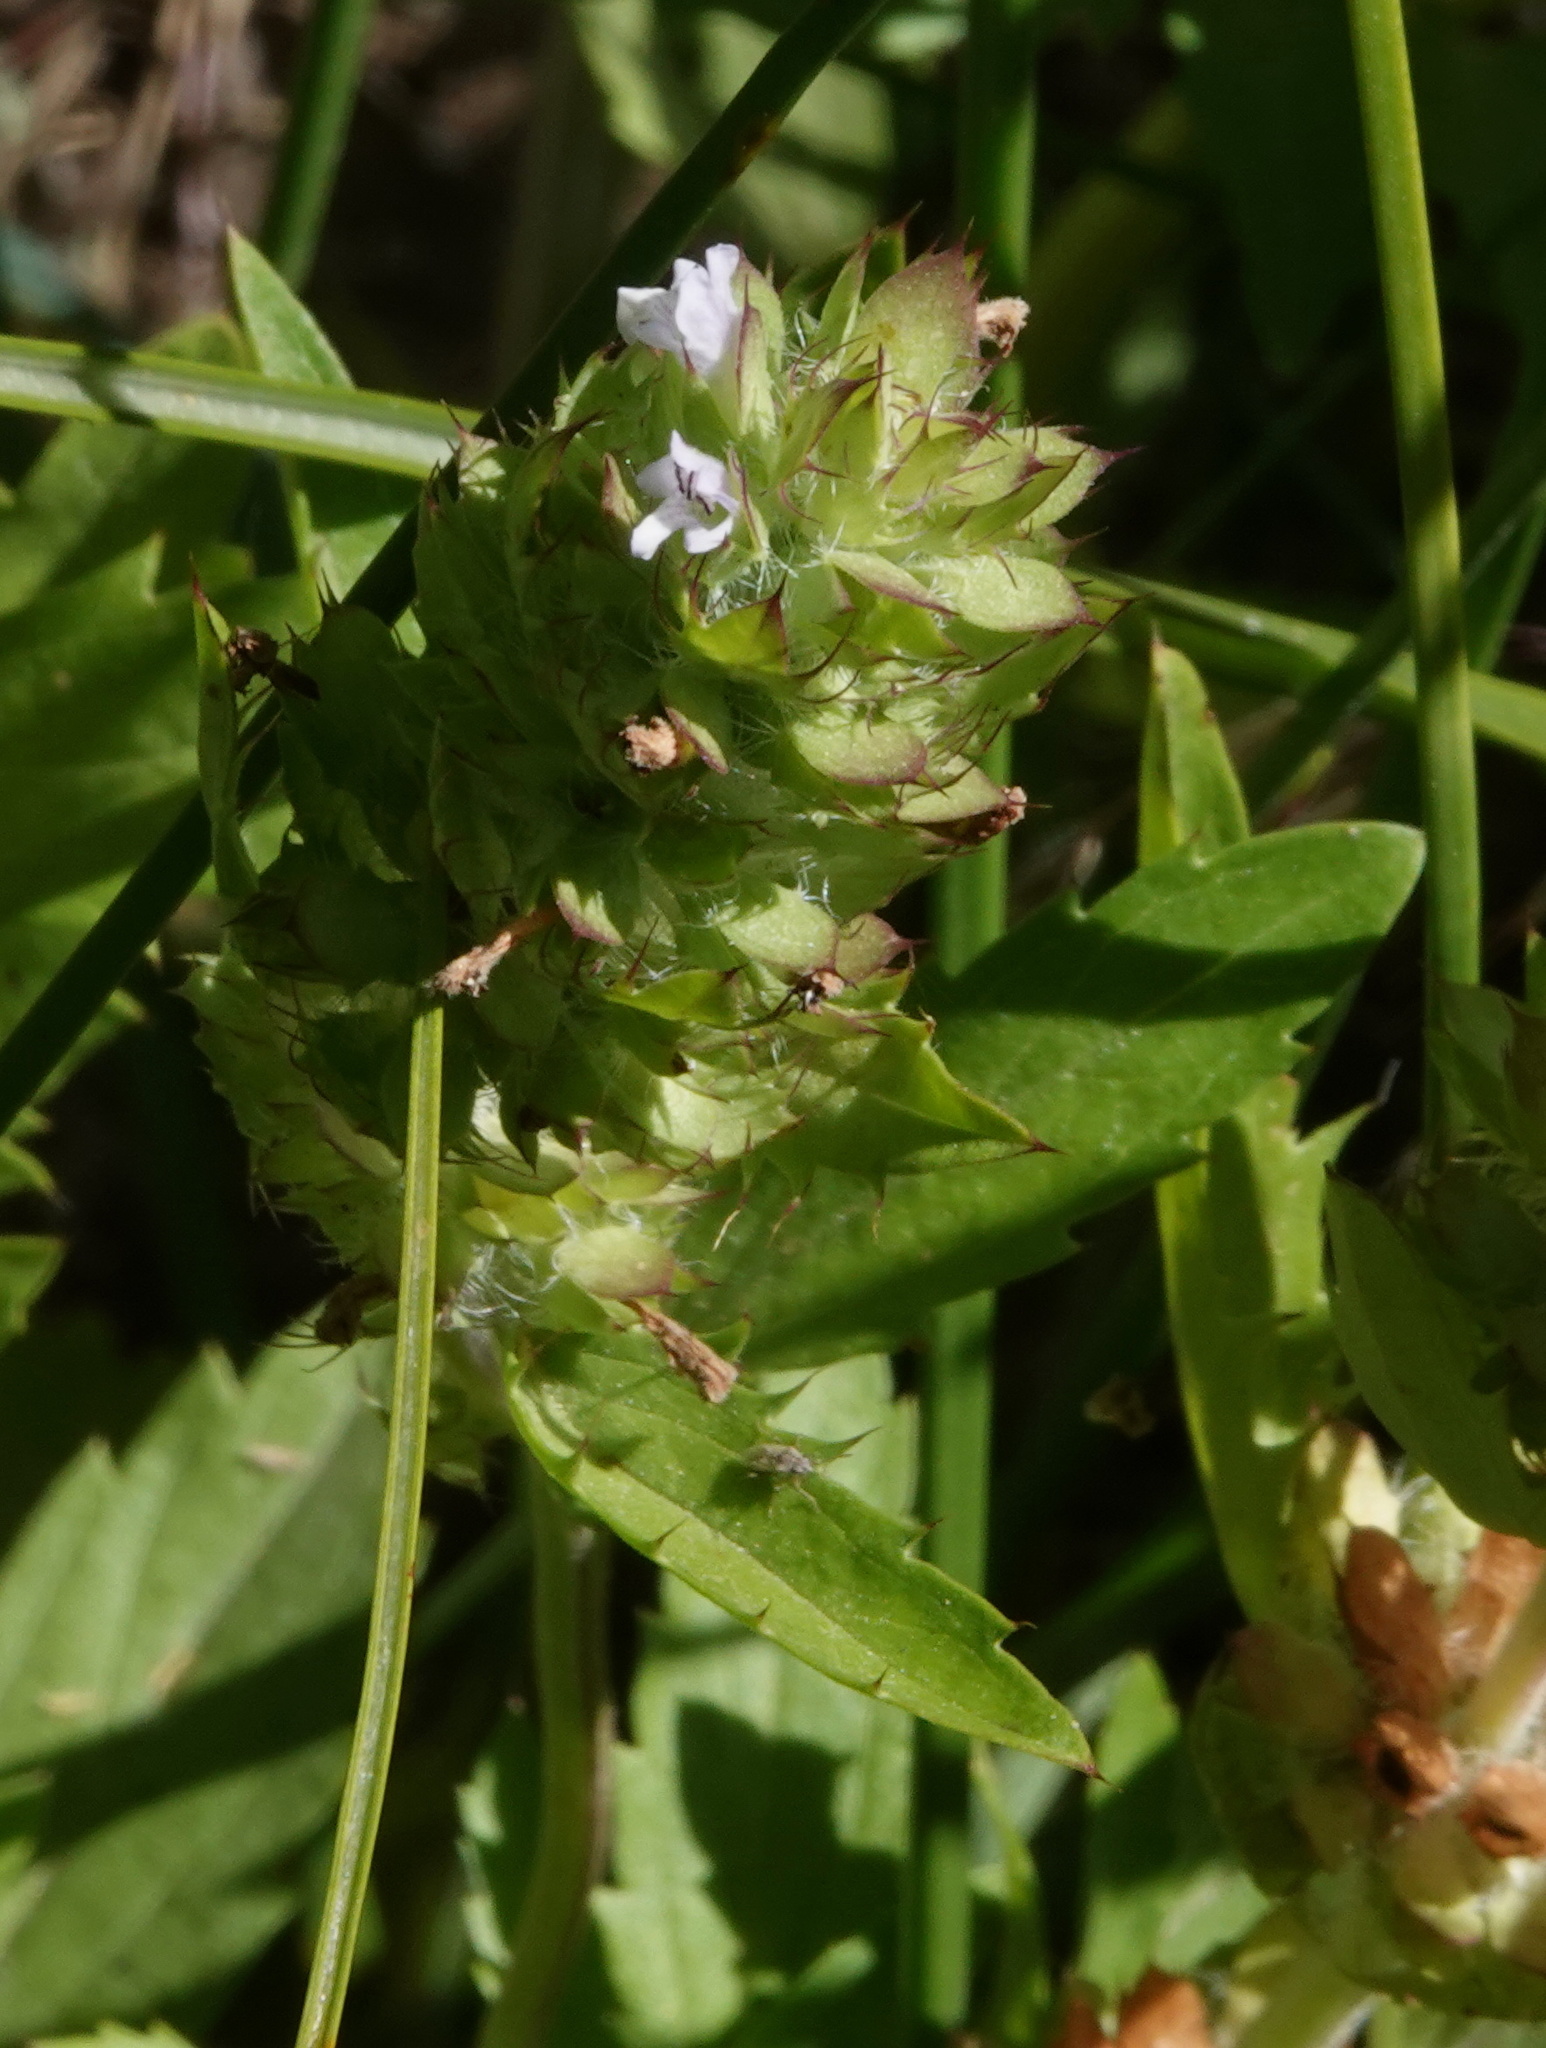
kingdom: Plantae
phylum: Tracheophyta
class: Magnoliopsida
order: Lamiales
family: Lamiaceae
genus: Dracocephalum
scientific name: Dracocephalum parviflorum
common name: American dragonhead
